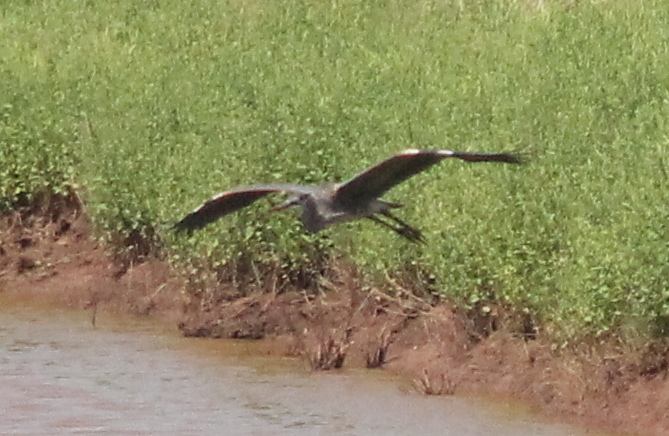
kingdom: Animalia
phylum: Chordata
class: Aves
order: Pelecaniformes
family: Ardeidae
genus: Ardea
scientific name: Ardea herodias
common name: Great blue heron
